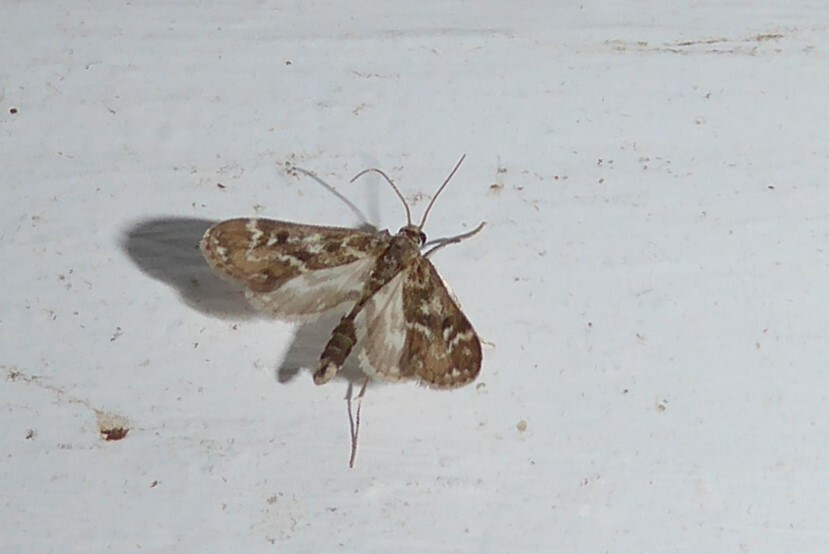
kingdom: Animalia
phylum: Arthropoda
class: Insecta
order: Lepidoptera
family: Crambidae
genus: Hygraula
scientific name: Hygraula nitens
